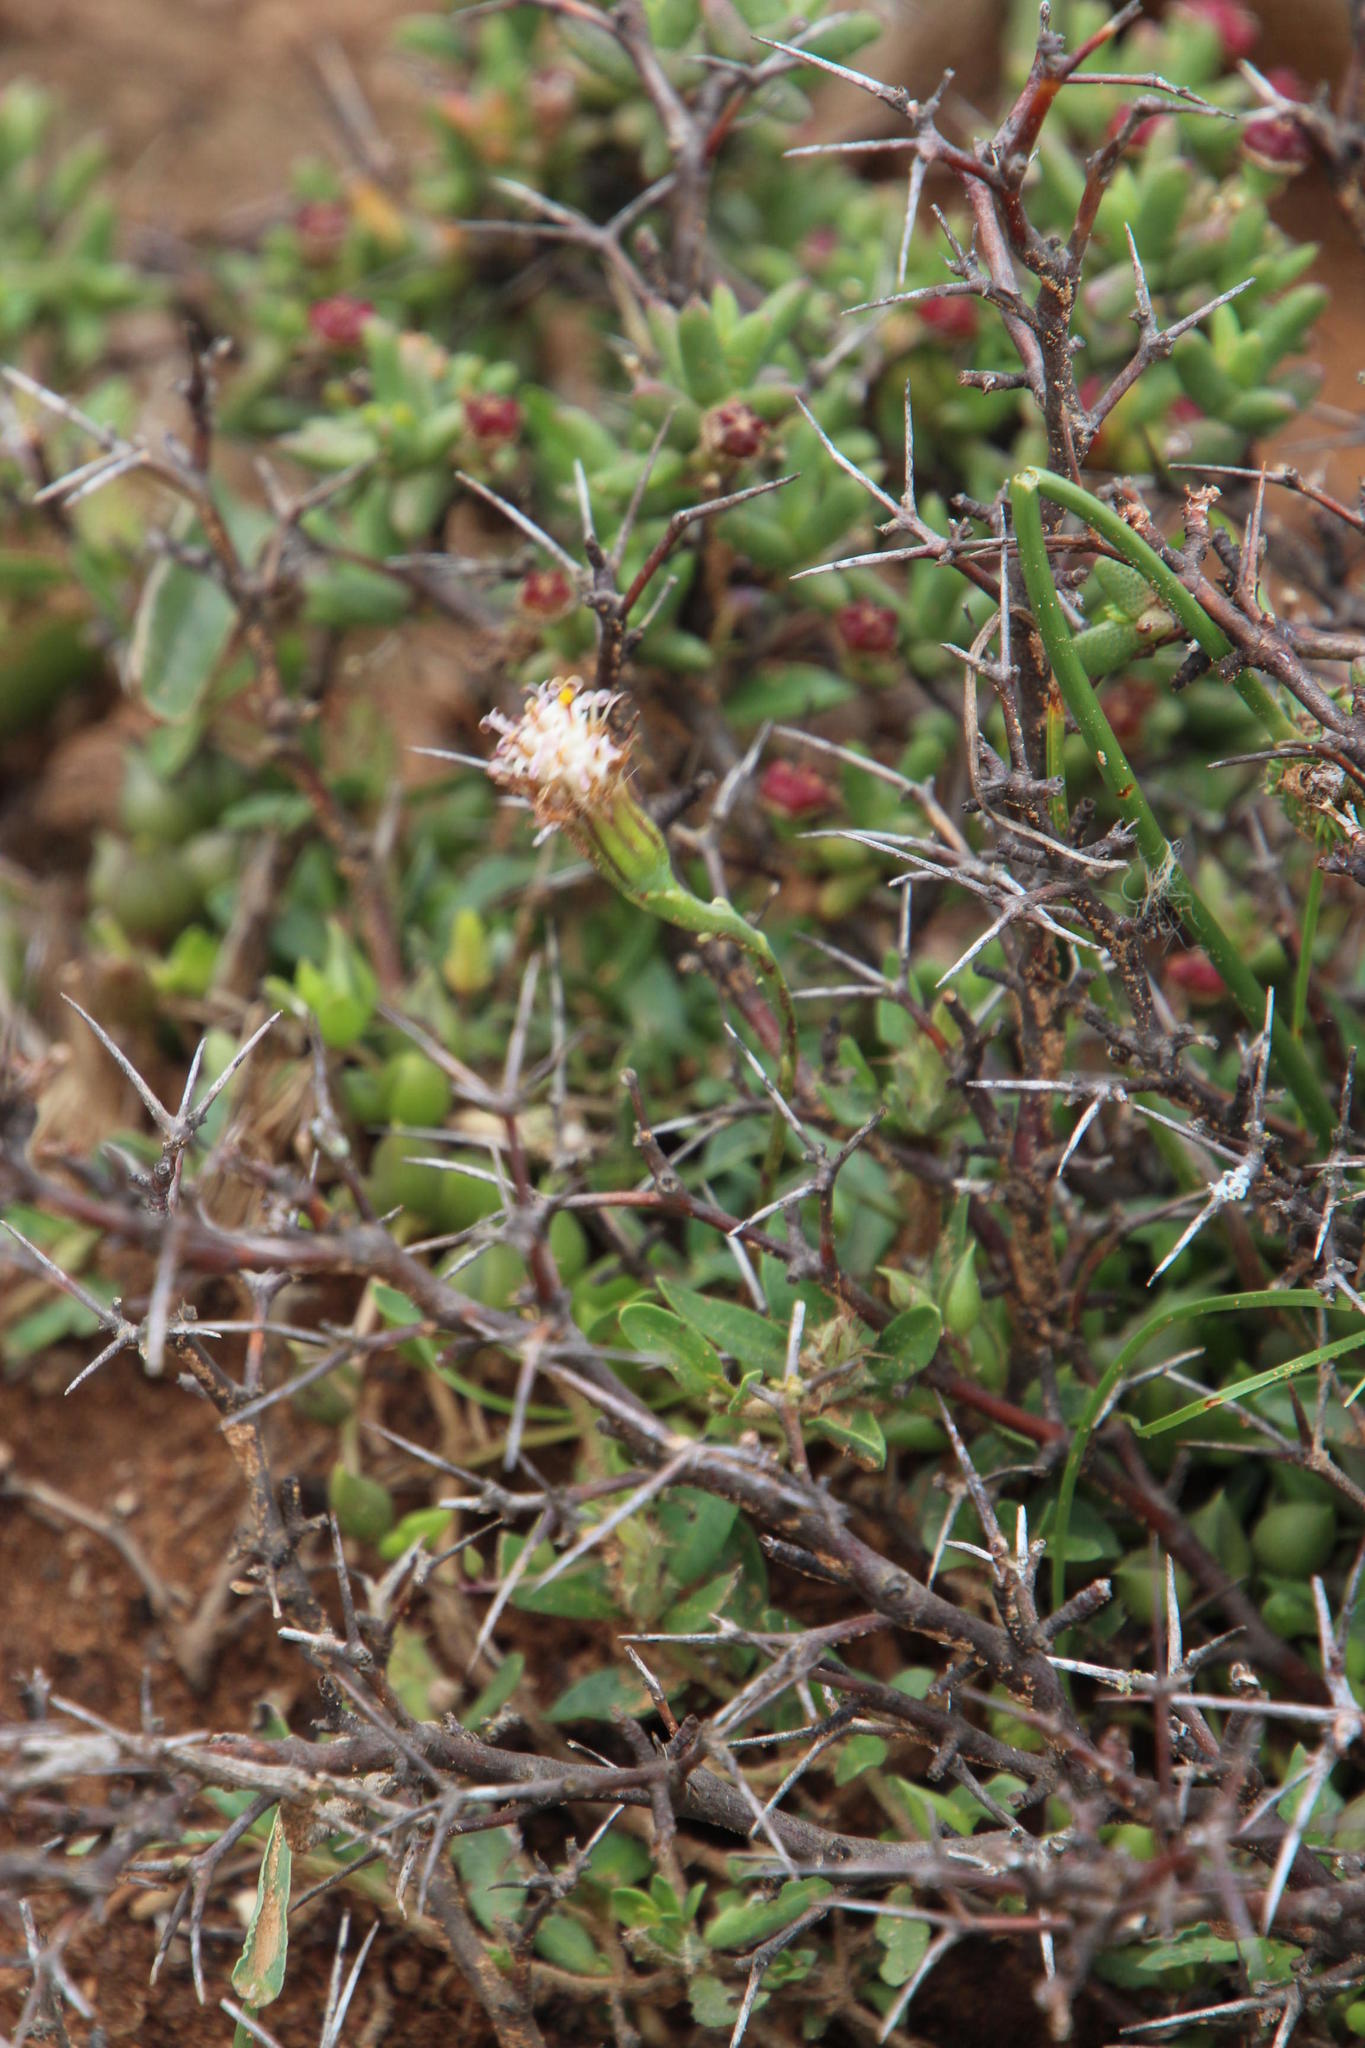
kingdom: Plantae
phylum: Tracheophyta
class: Magnoliopsida
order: Asterales
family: Asteraceae
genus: Curio
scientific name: Curio radicans
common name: Creeping-berry
